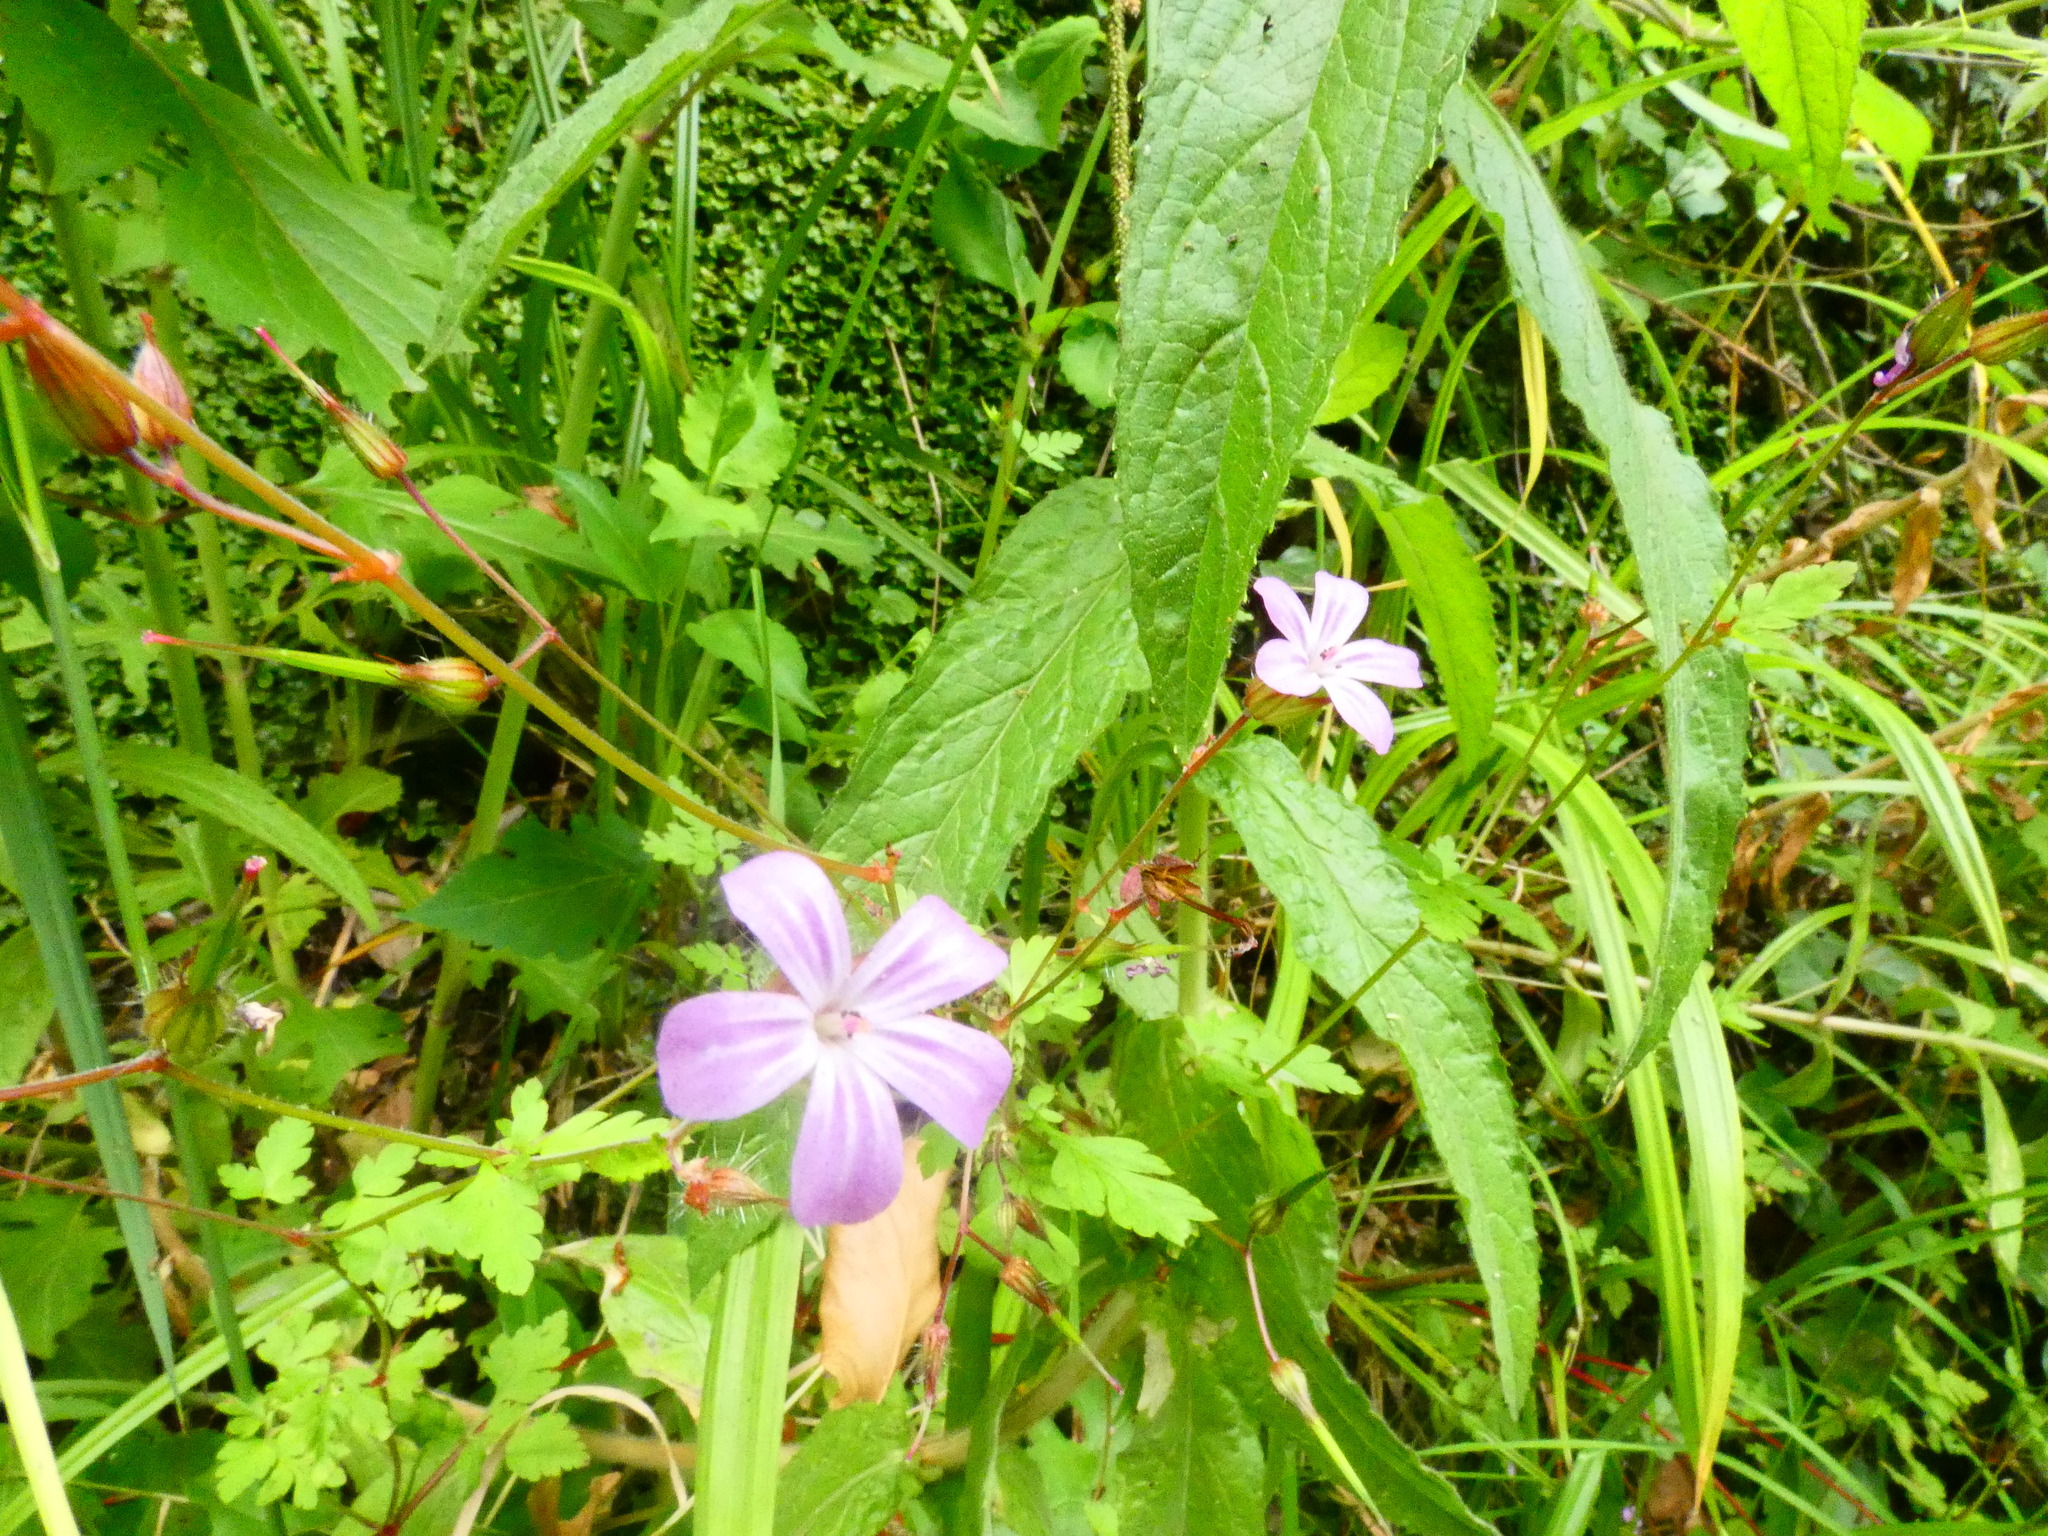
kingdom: Plantae
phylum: Tracheophyta
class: Magnoliopsida
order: Geraniales
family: Geraniaceae
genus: Geranium
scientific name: Geranium robertianum
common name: Herb-robert
